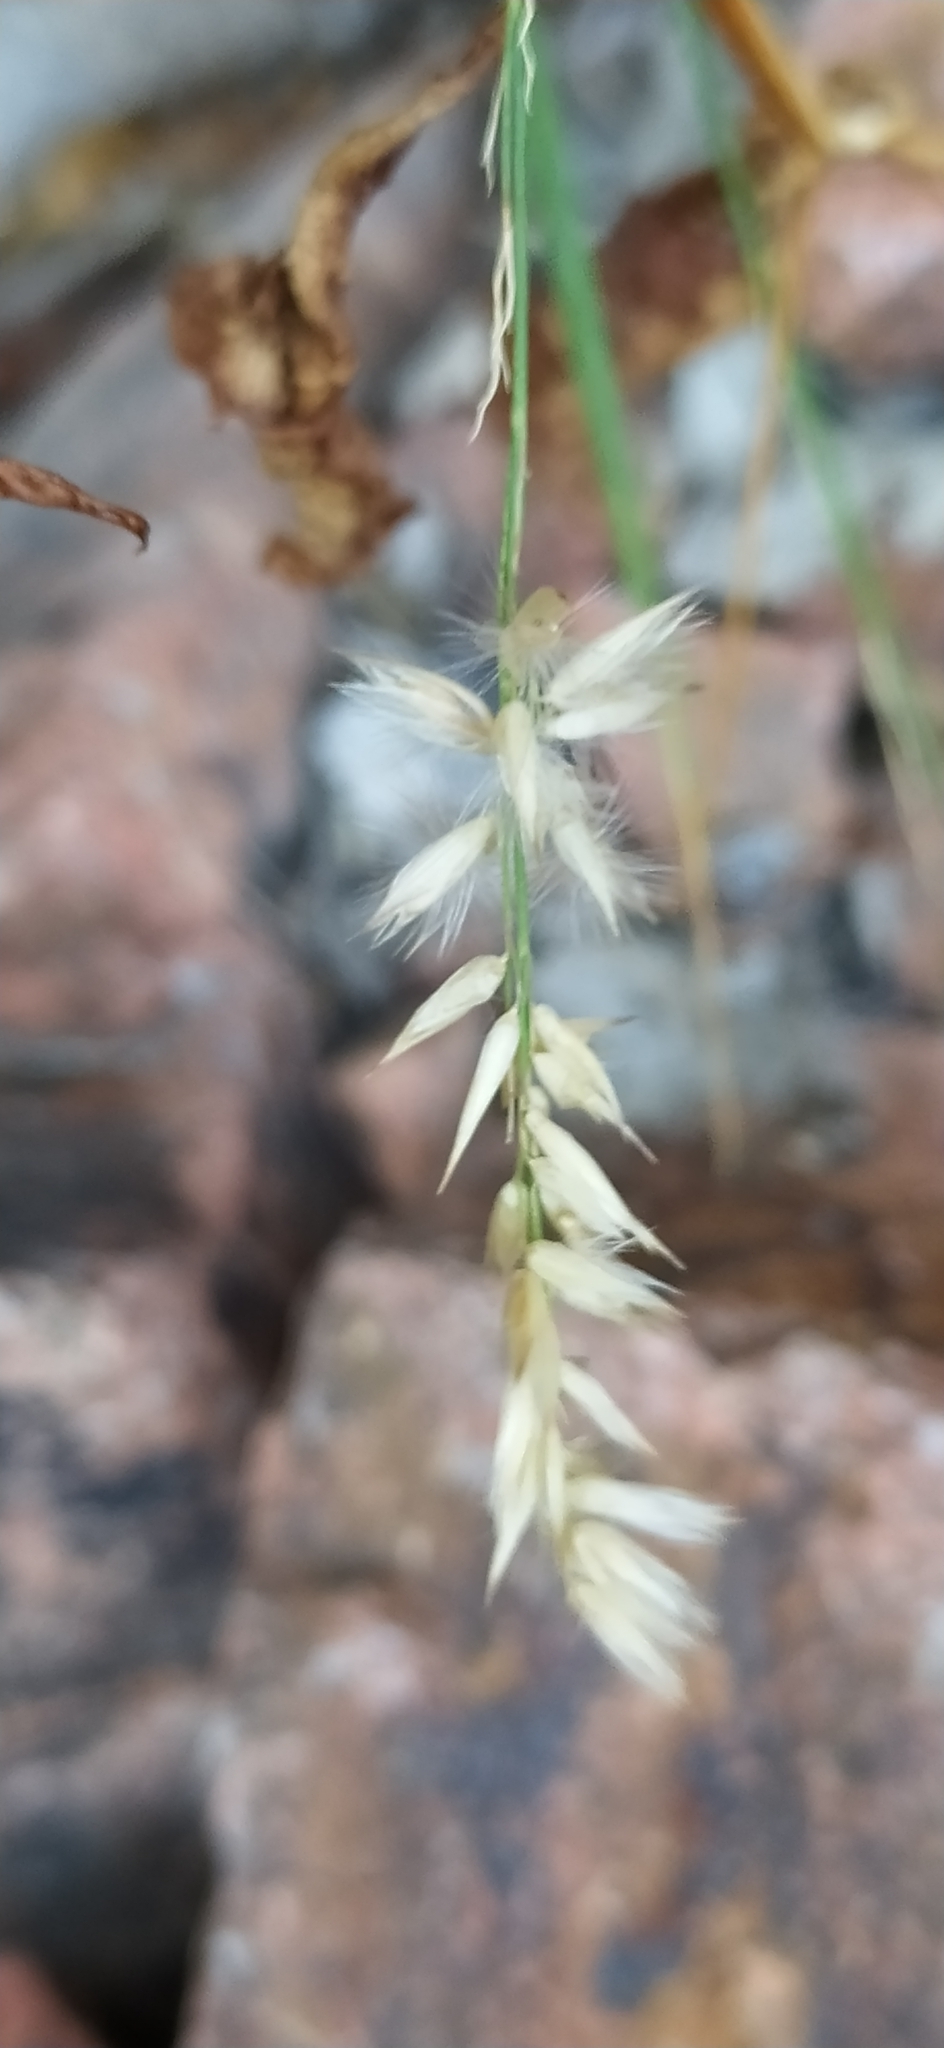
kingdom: Plantae
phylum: Tracheophyta
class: Liliopsida
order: Poales
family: Poaceae
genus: Melica
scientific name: Melica persica
